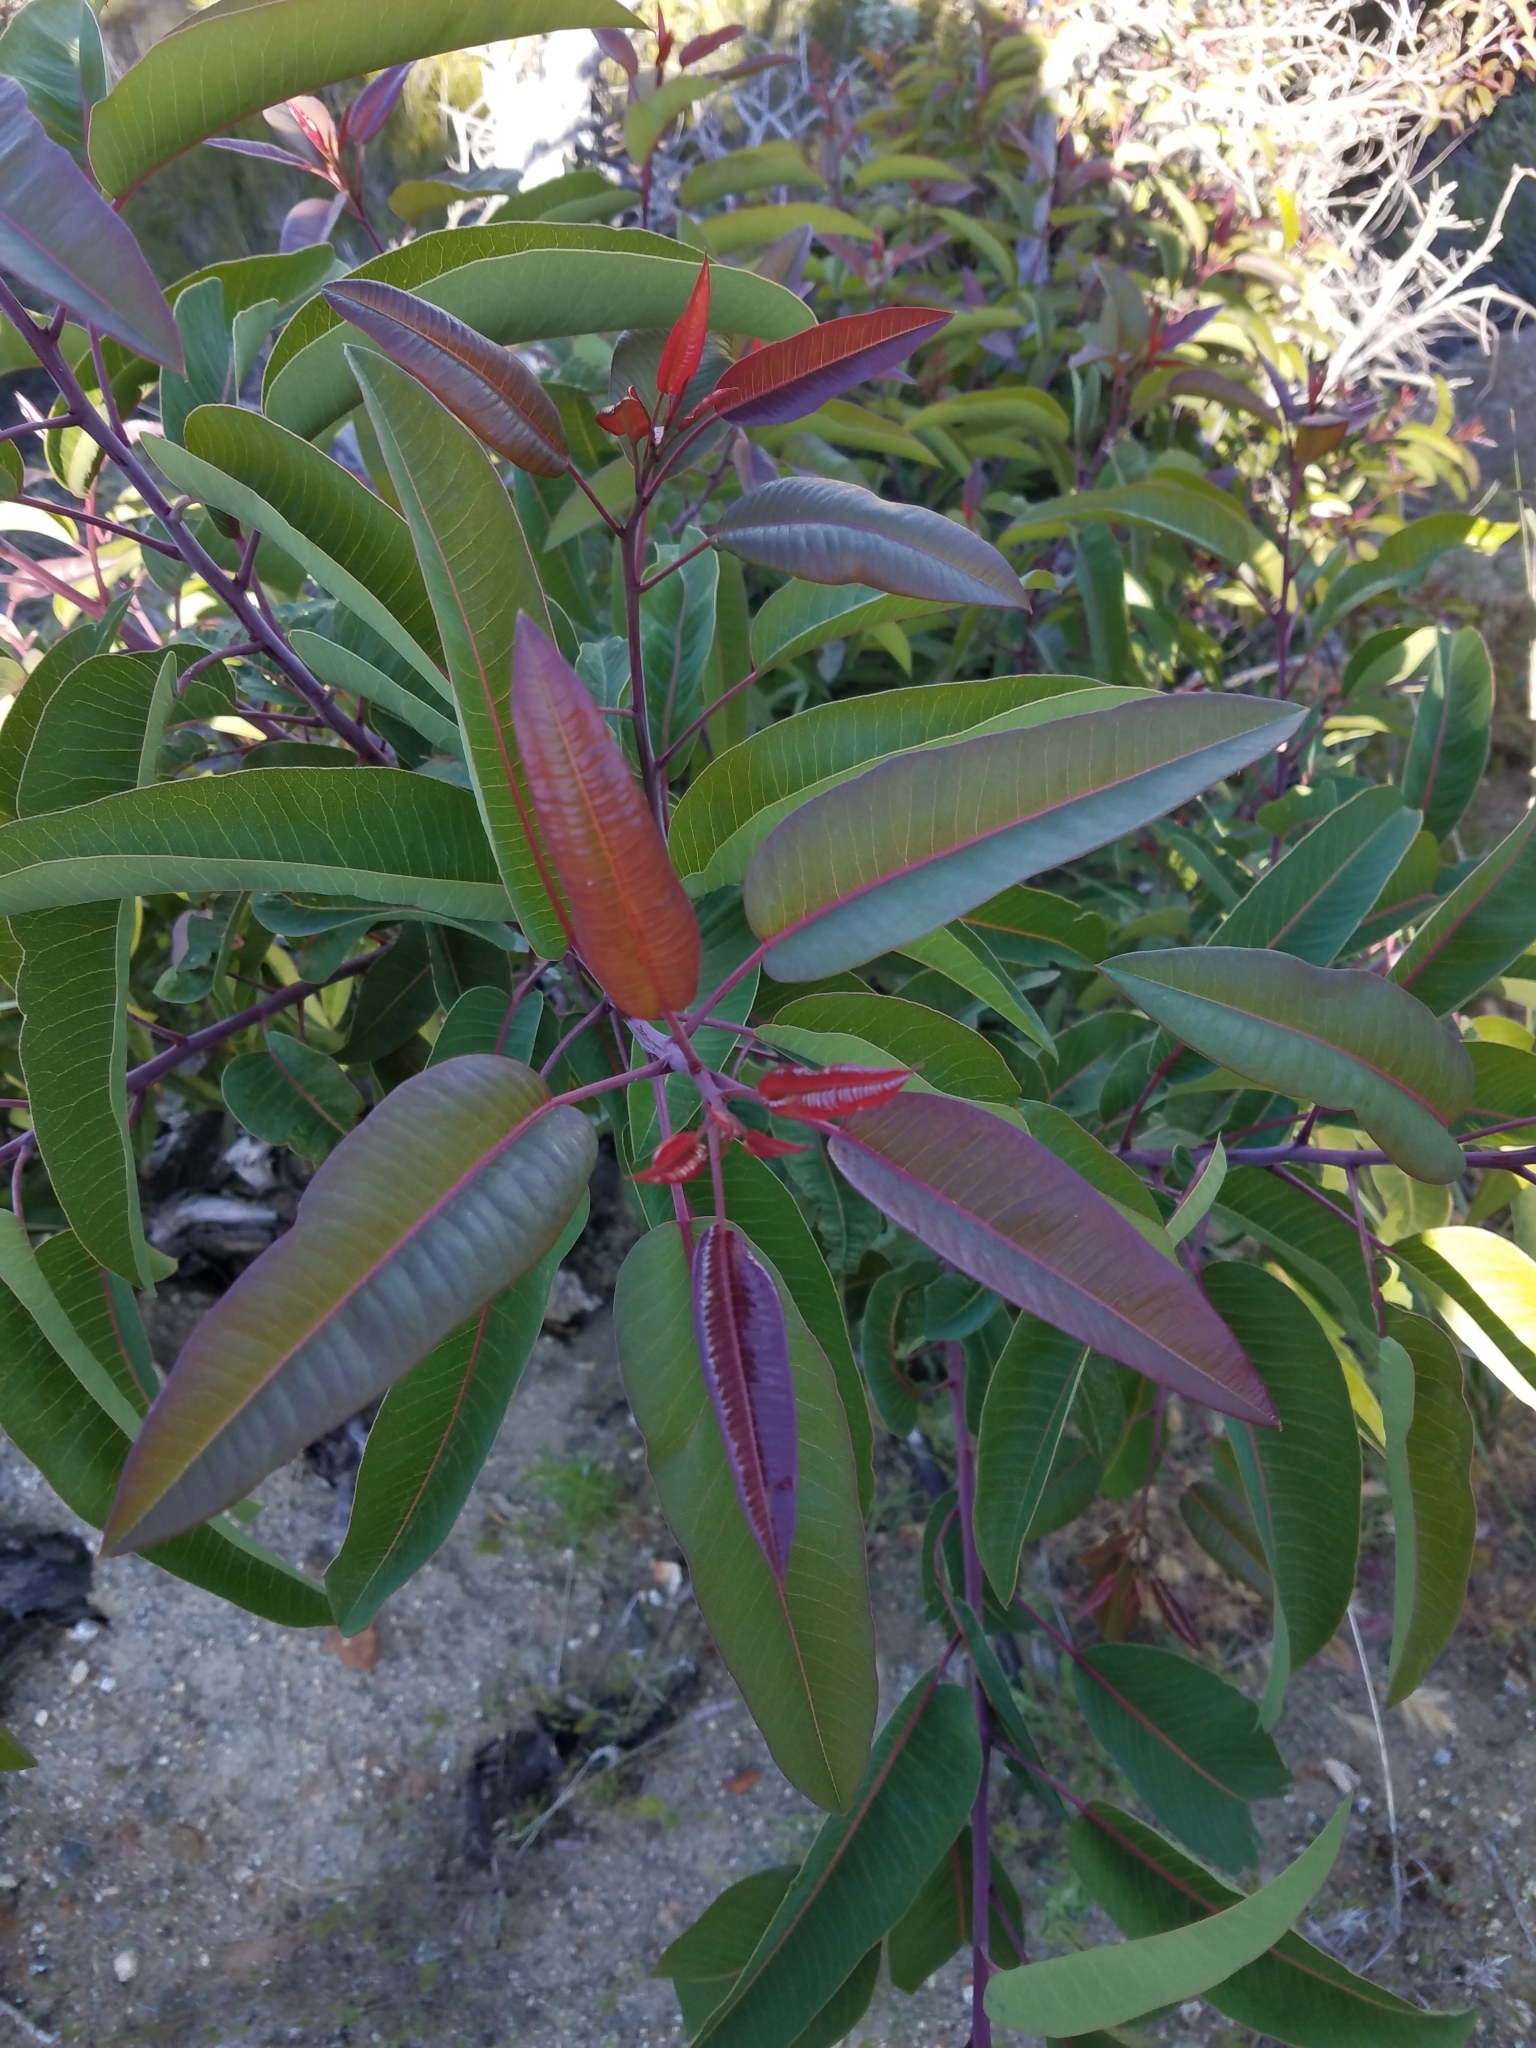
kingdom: Plantae
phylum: Tracheophyta
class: Magnoliopsida
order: Sapindales
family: Anacardiaceae
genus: Malosma
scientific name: Malosma laurina
